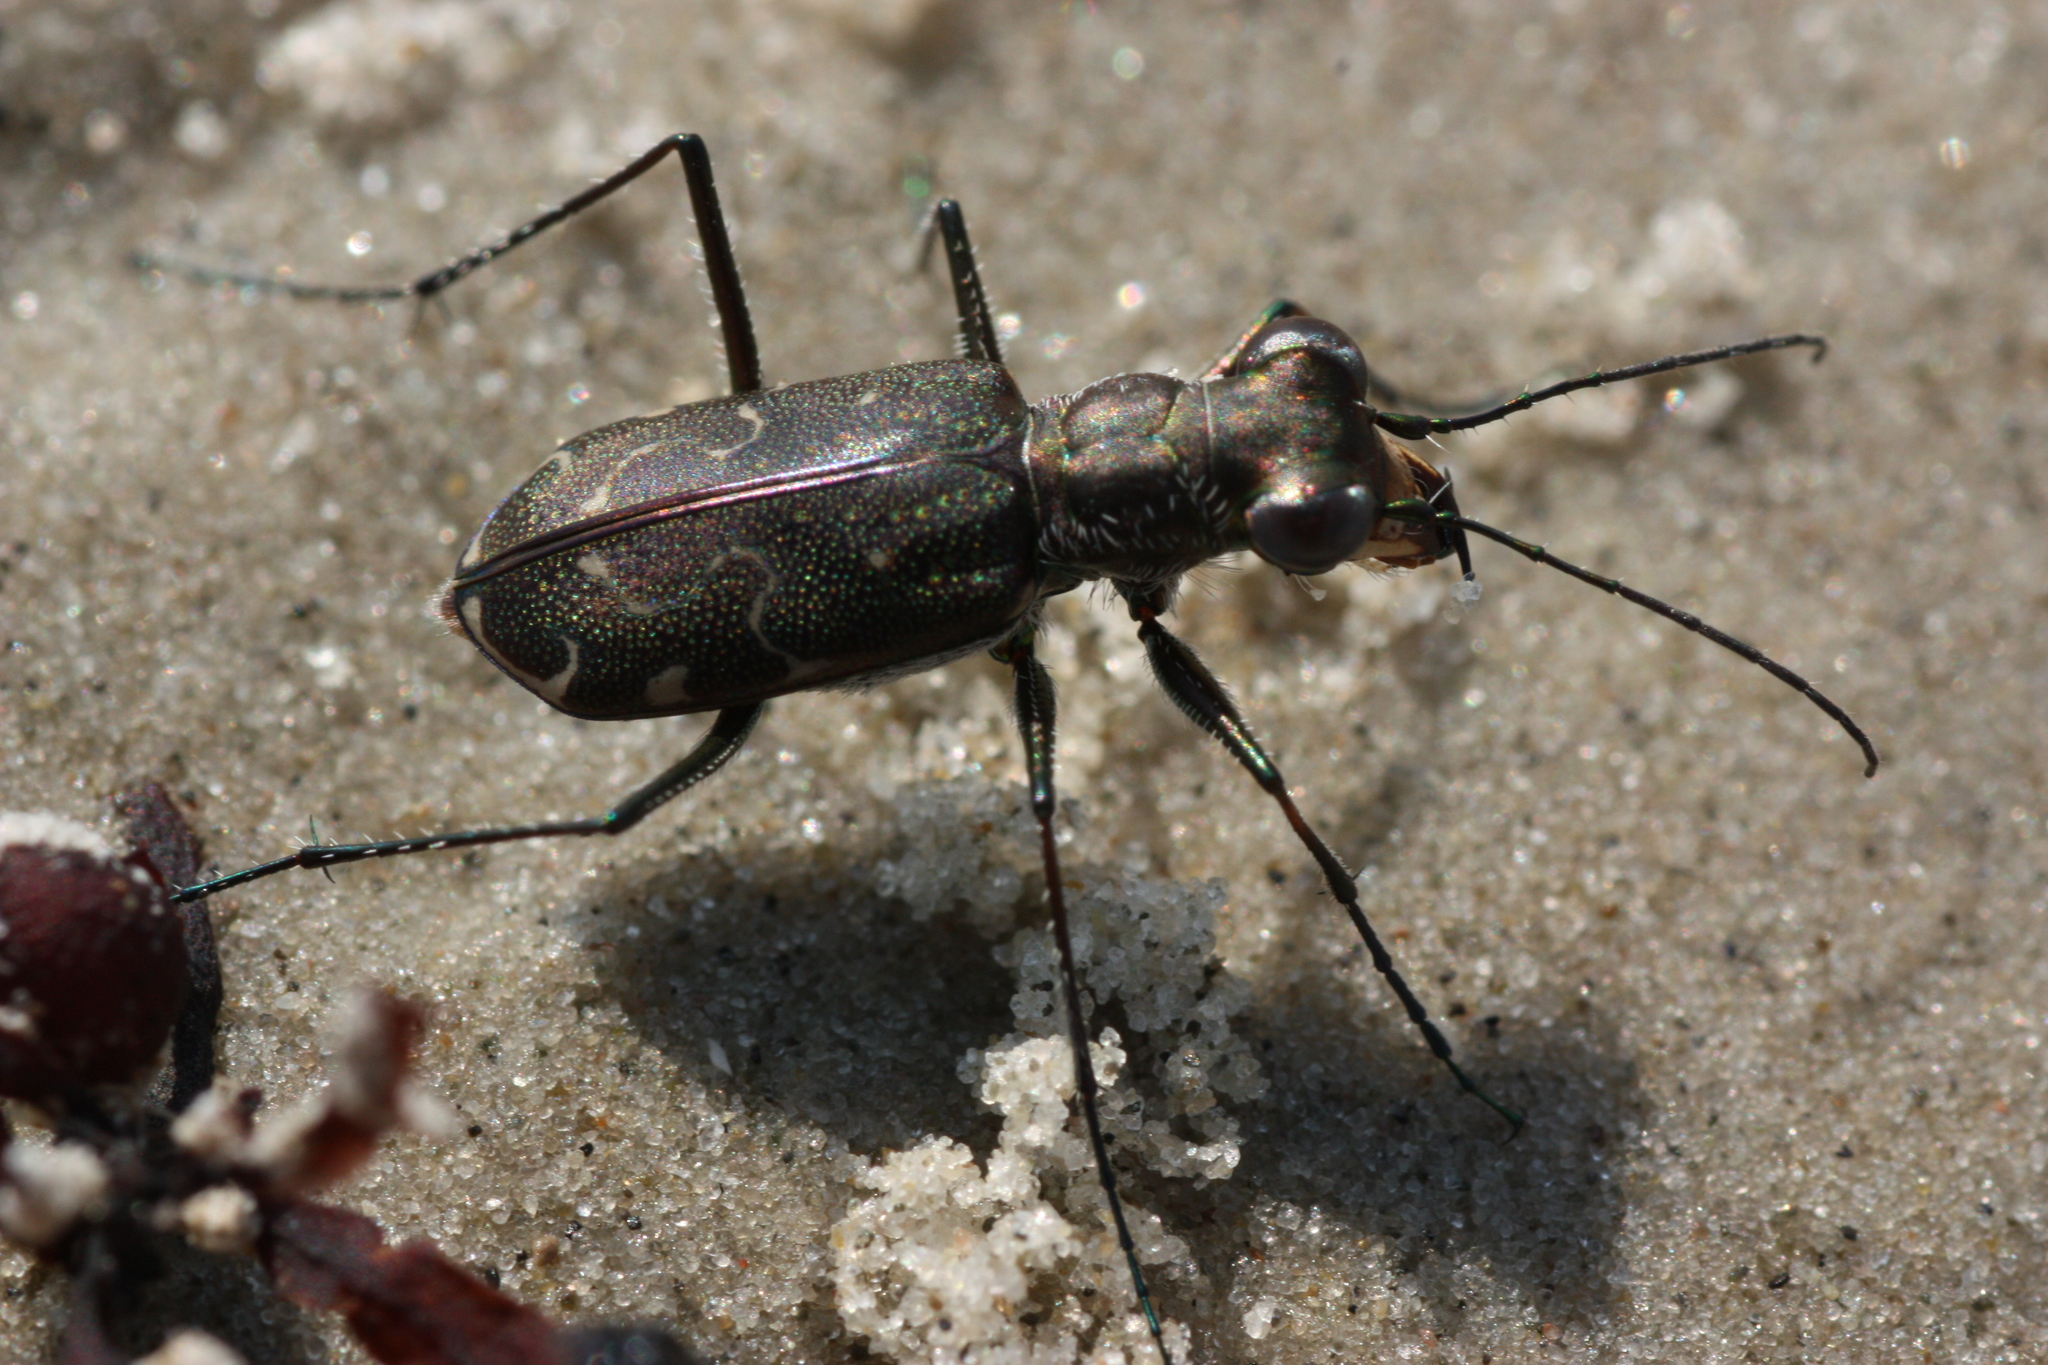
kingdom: Animalia
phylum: Arthropoda
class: Insecta
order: Coleoptera
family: Carabidae
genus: Cicindela
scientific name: Cicindela trifasciata
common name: Mudflat tiger beetle
